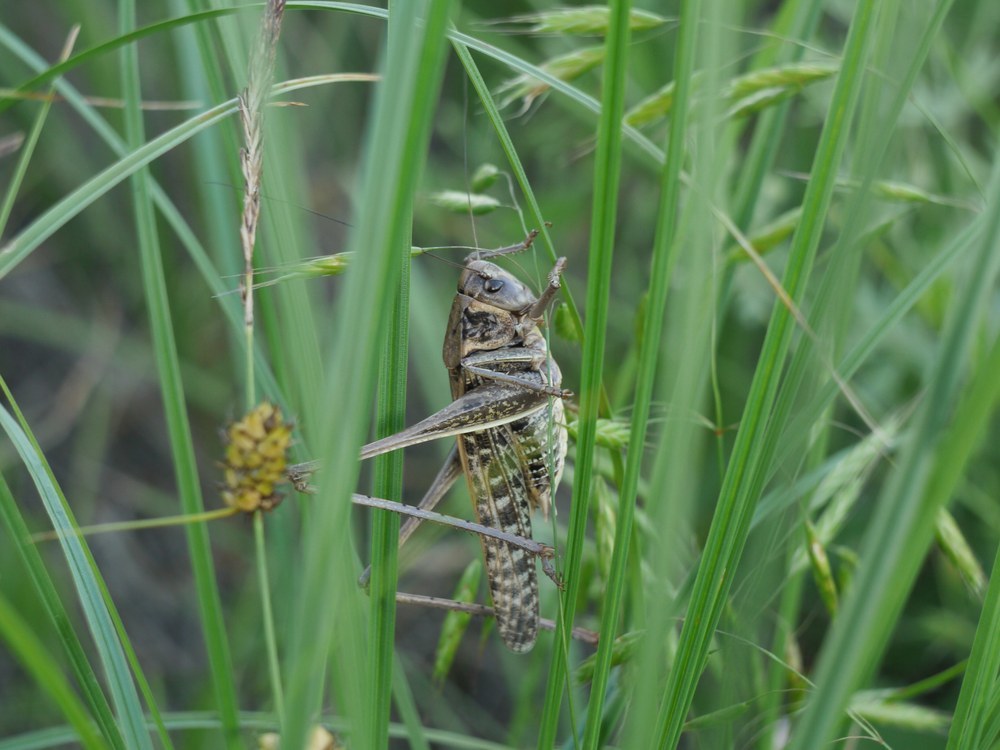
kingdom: Animalia
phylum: Arthropoda
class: Insecta
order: Orthoptera
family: Tettigoniidae
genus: Decticus
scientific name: Decticus verrucivorus
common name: Wart-biter
